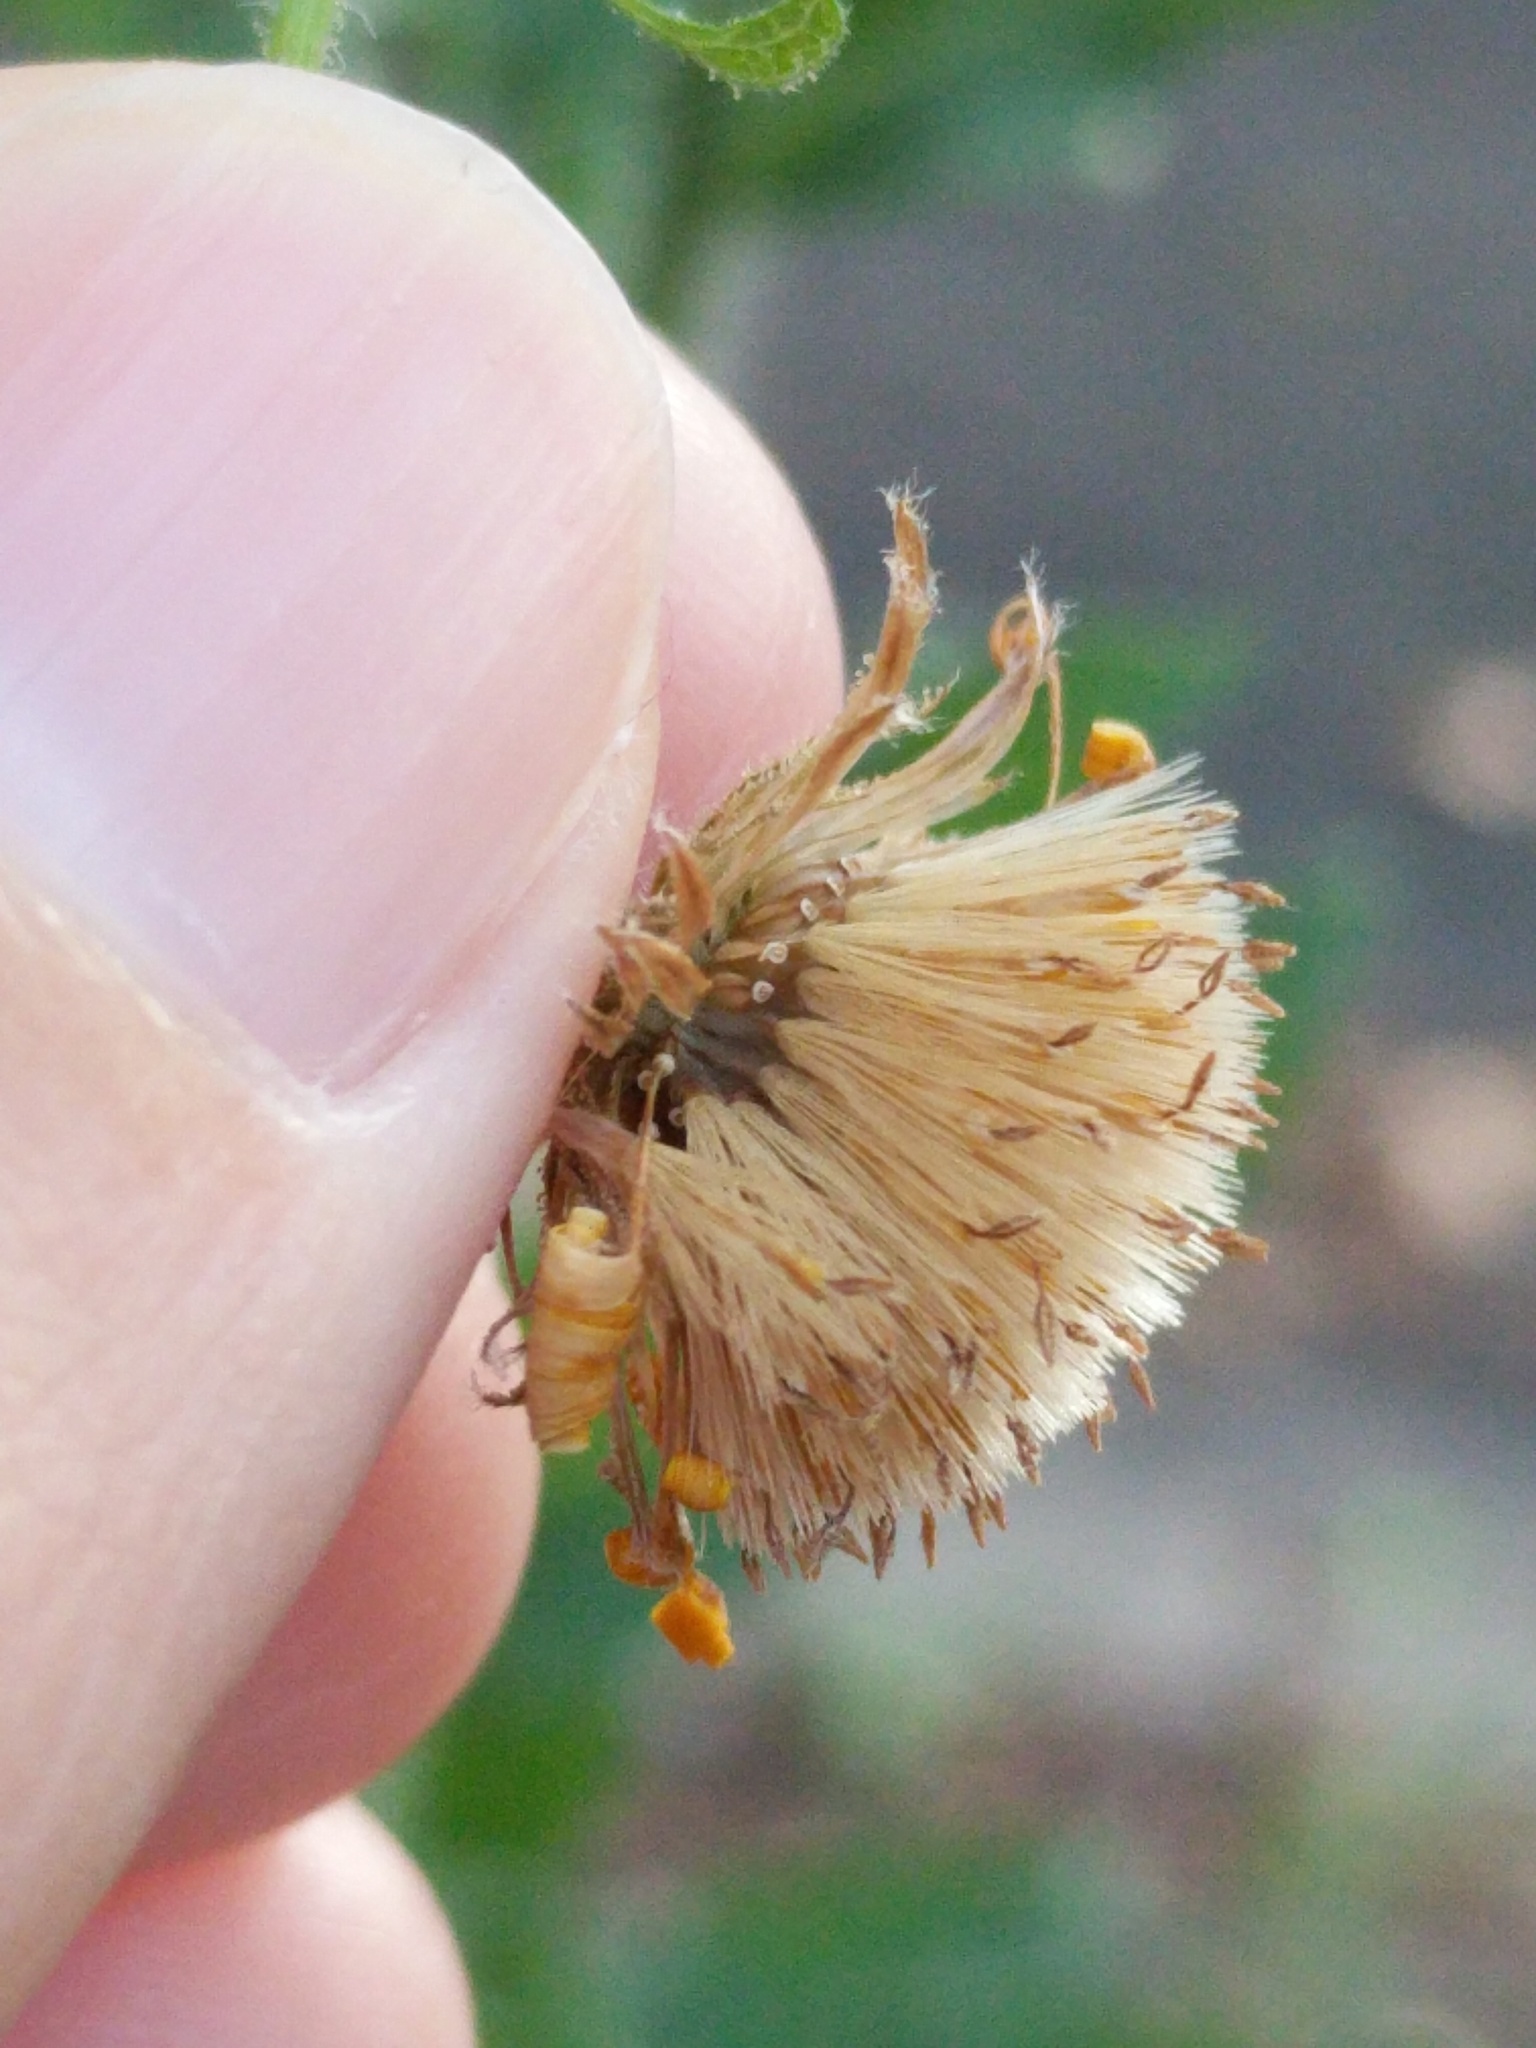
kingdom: Plantae
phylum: Tracheophyta
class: Magnoliopsida
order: Asterales
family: Asteraceae
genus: Heterotheca
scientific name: Heterotheca subaxillaris
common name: Camphorweed
